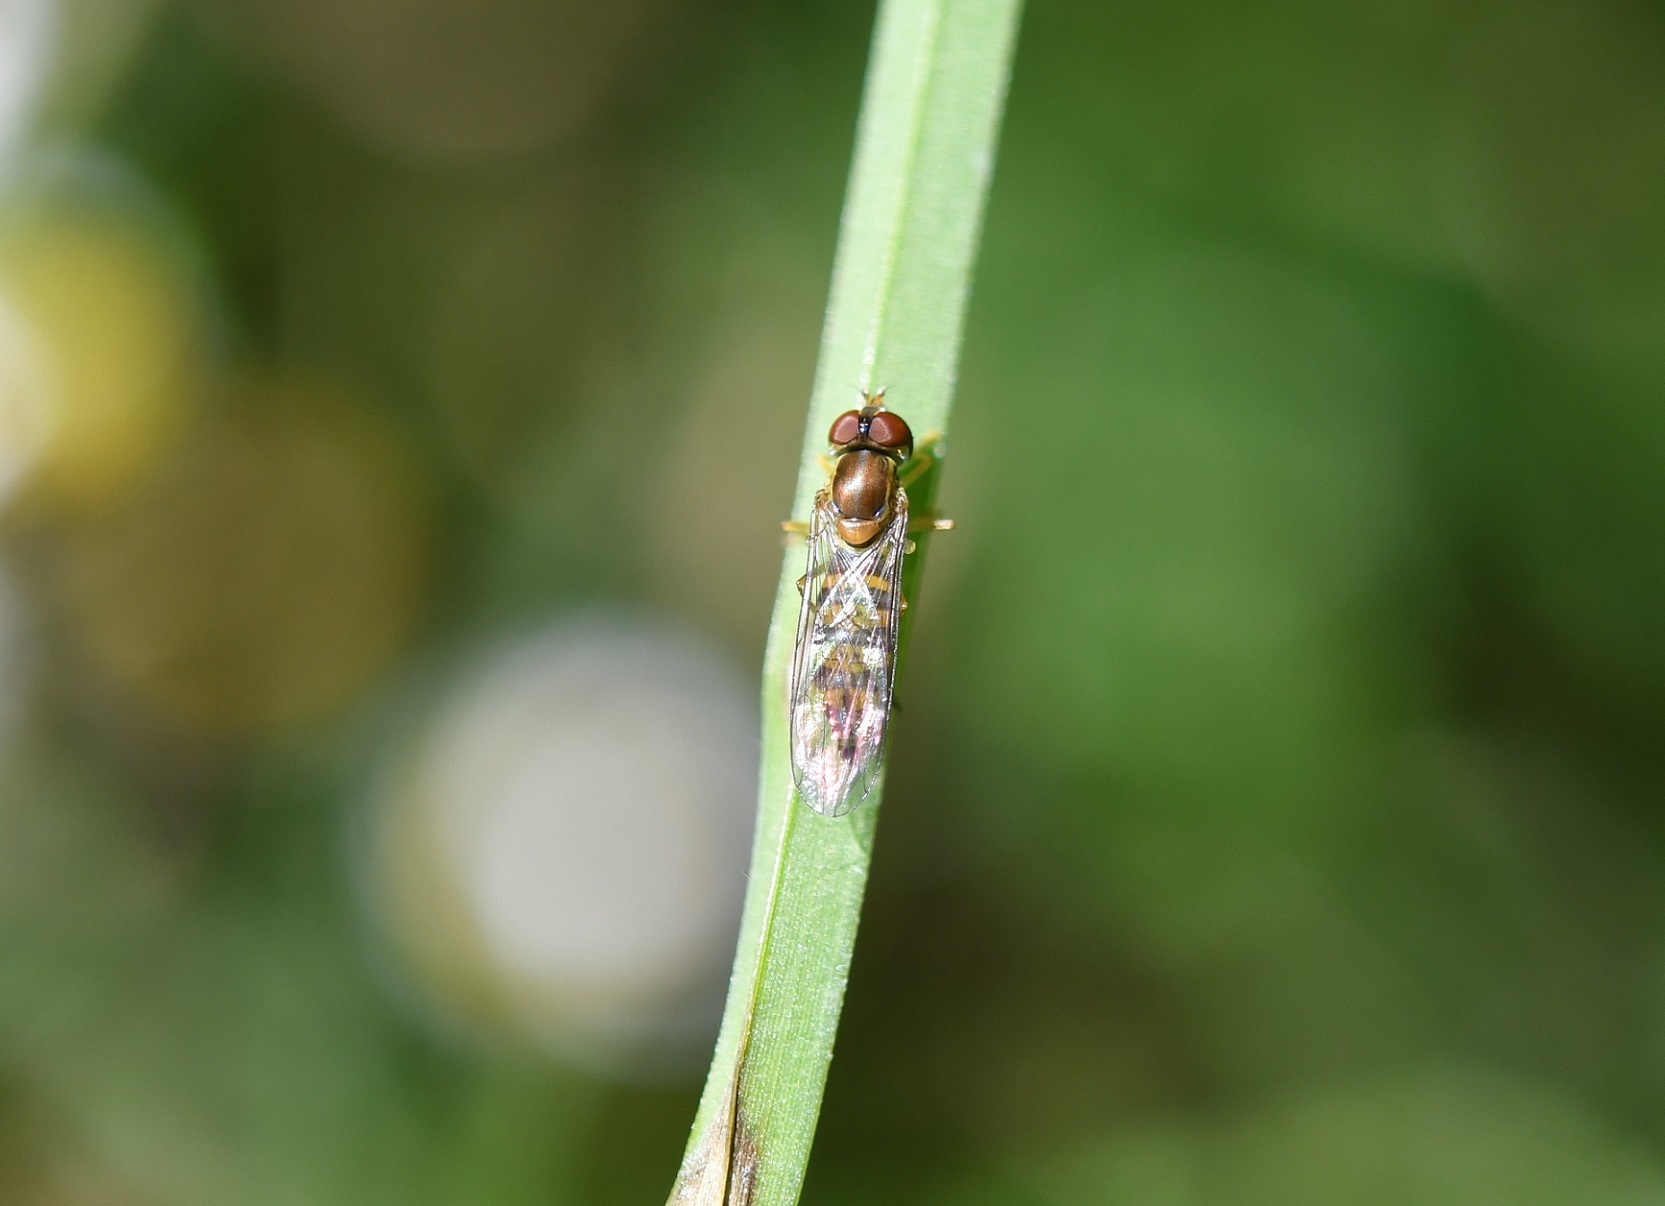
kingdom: Animalia
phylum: Arthropoda
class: Insecta
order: Diptera
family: Syrphidae
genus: Toxomerus
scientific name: Toxomerus mutuus
